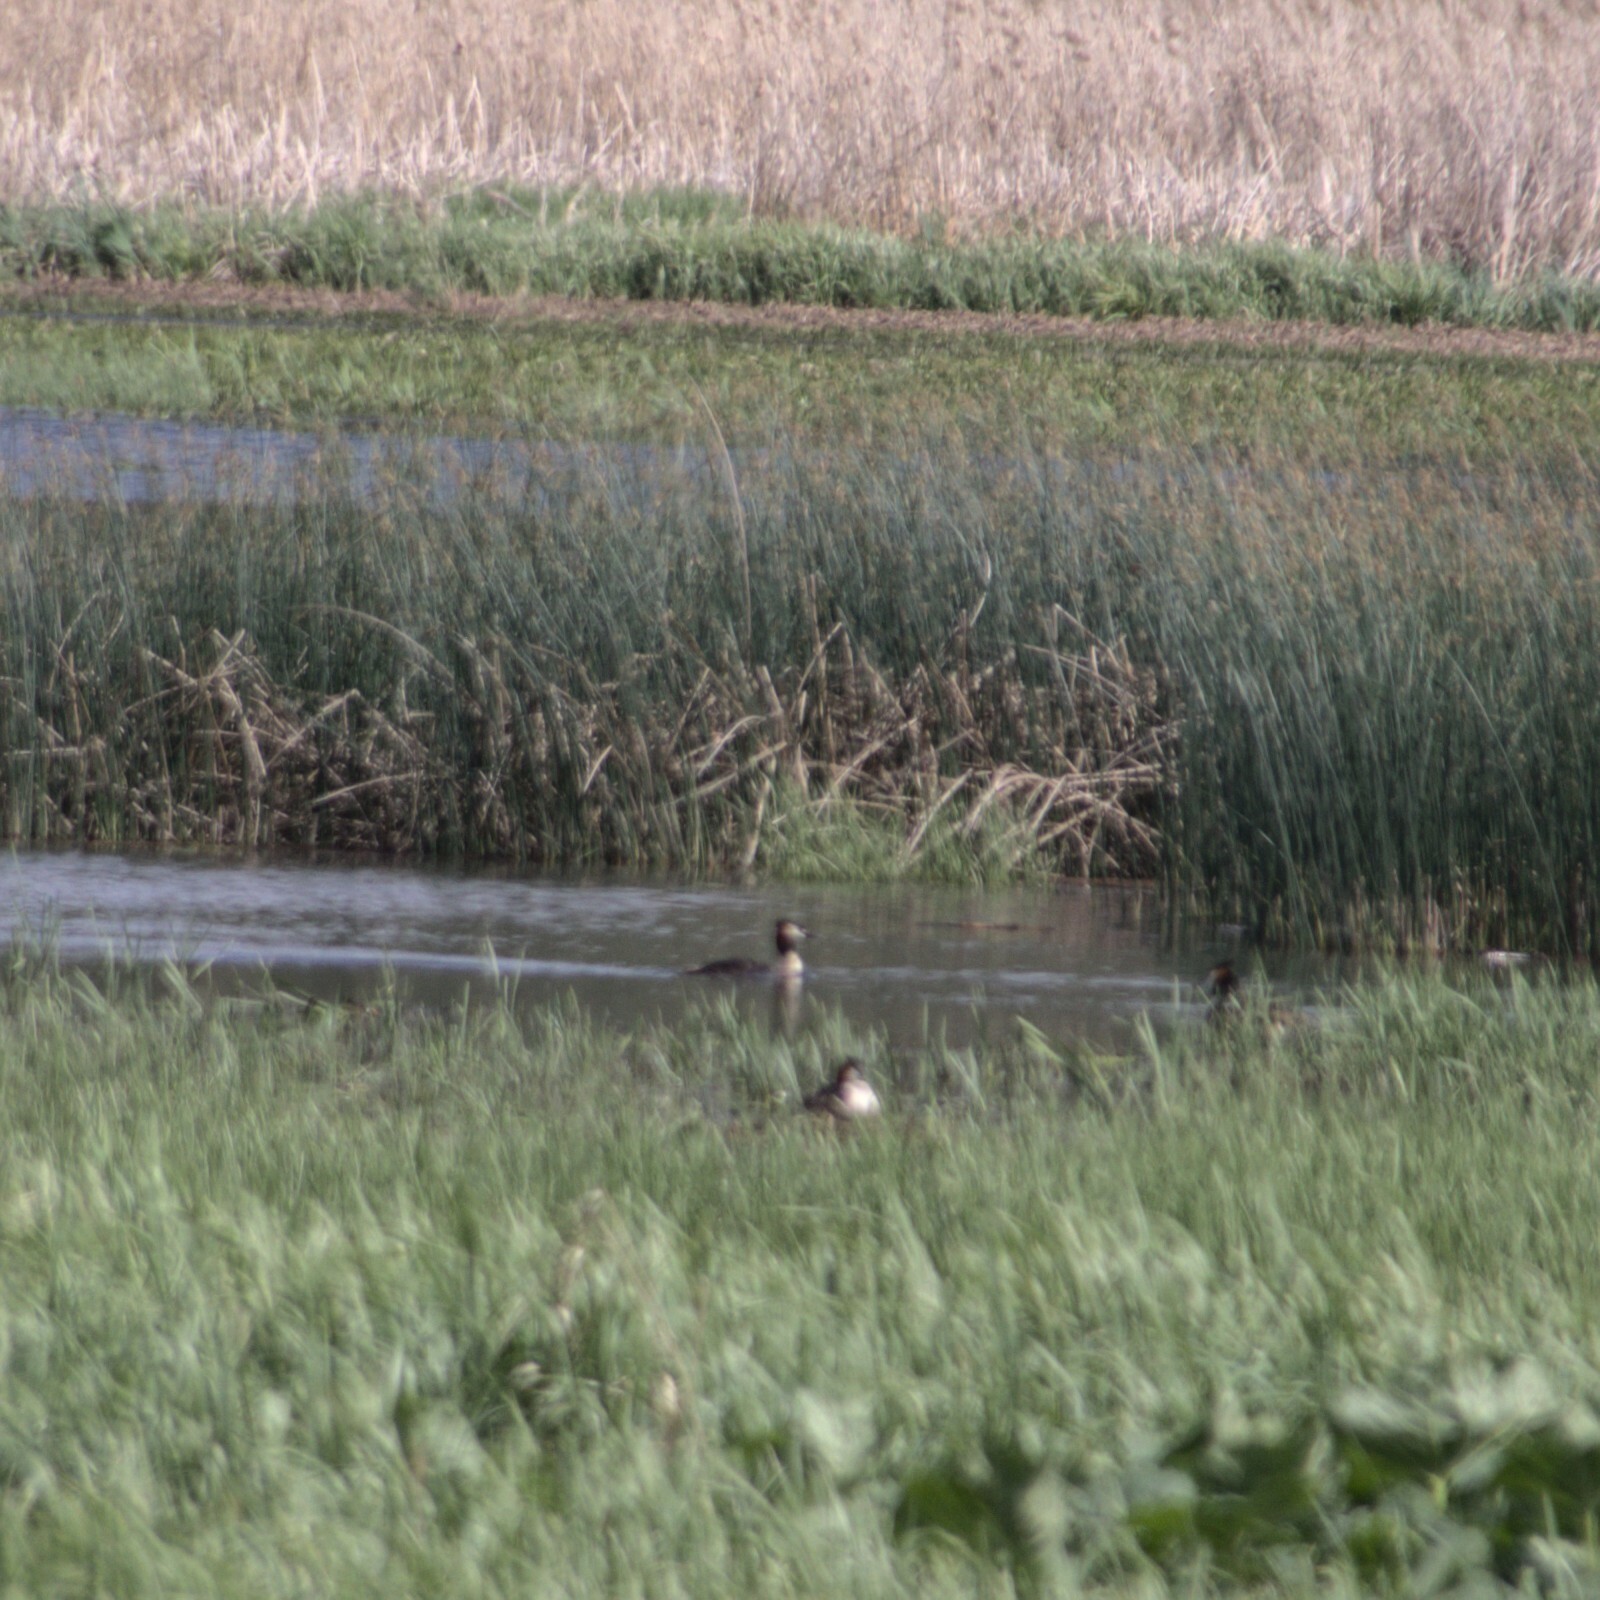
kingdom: Animalia
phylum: Chordata
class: Aves
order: Podicipediformes
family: Podicipedidae
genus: Podiceps
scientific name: Podiceps cristatus
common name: Great crested grebe
